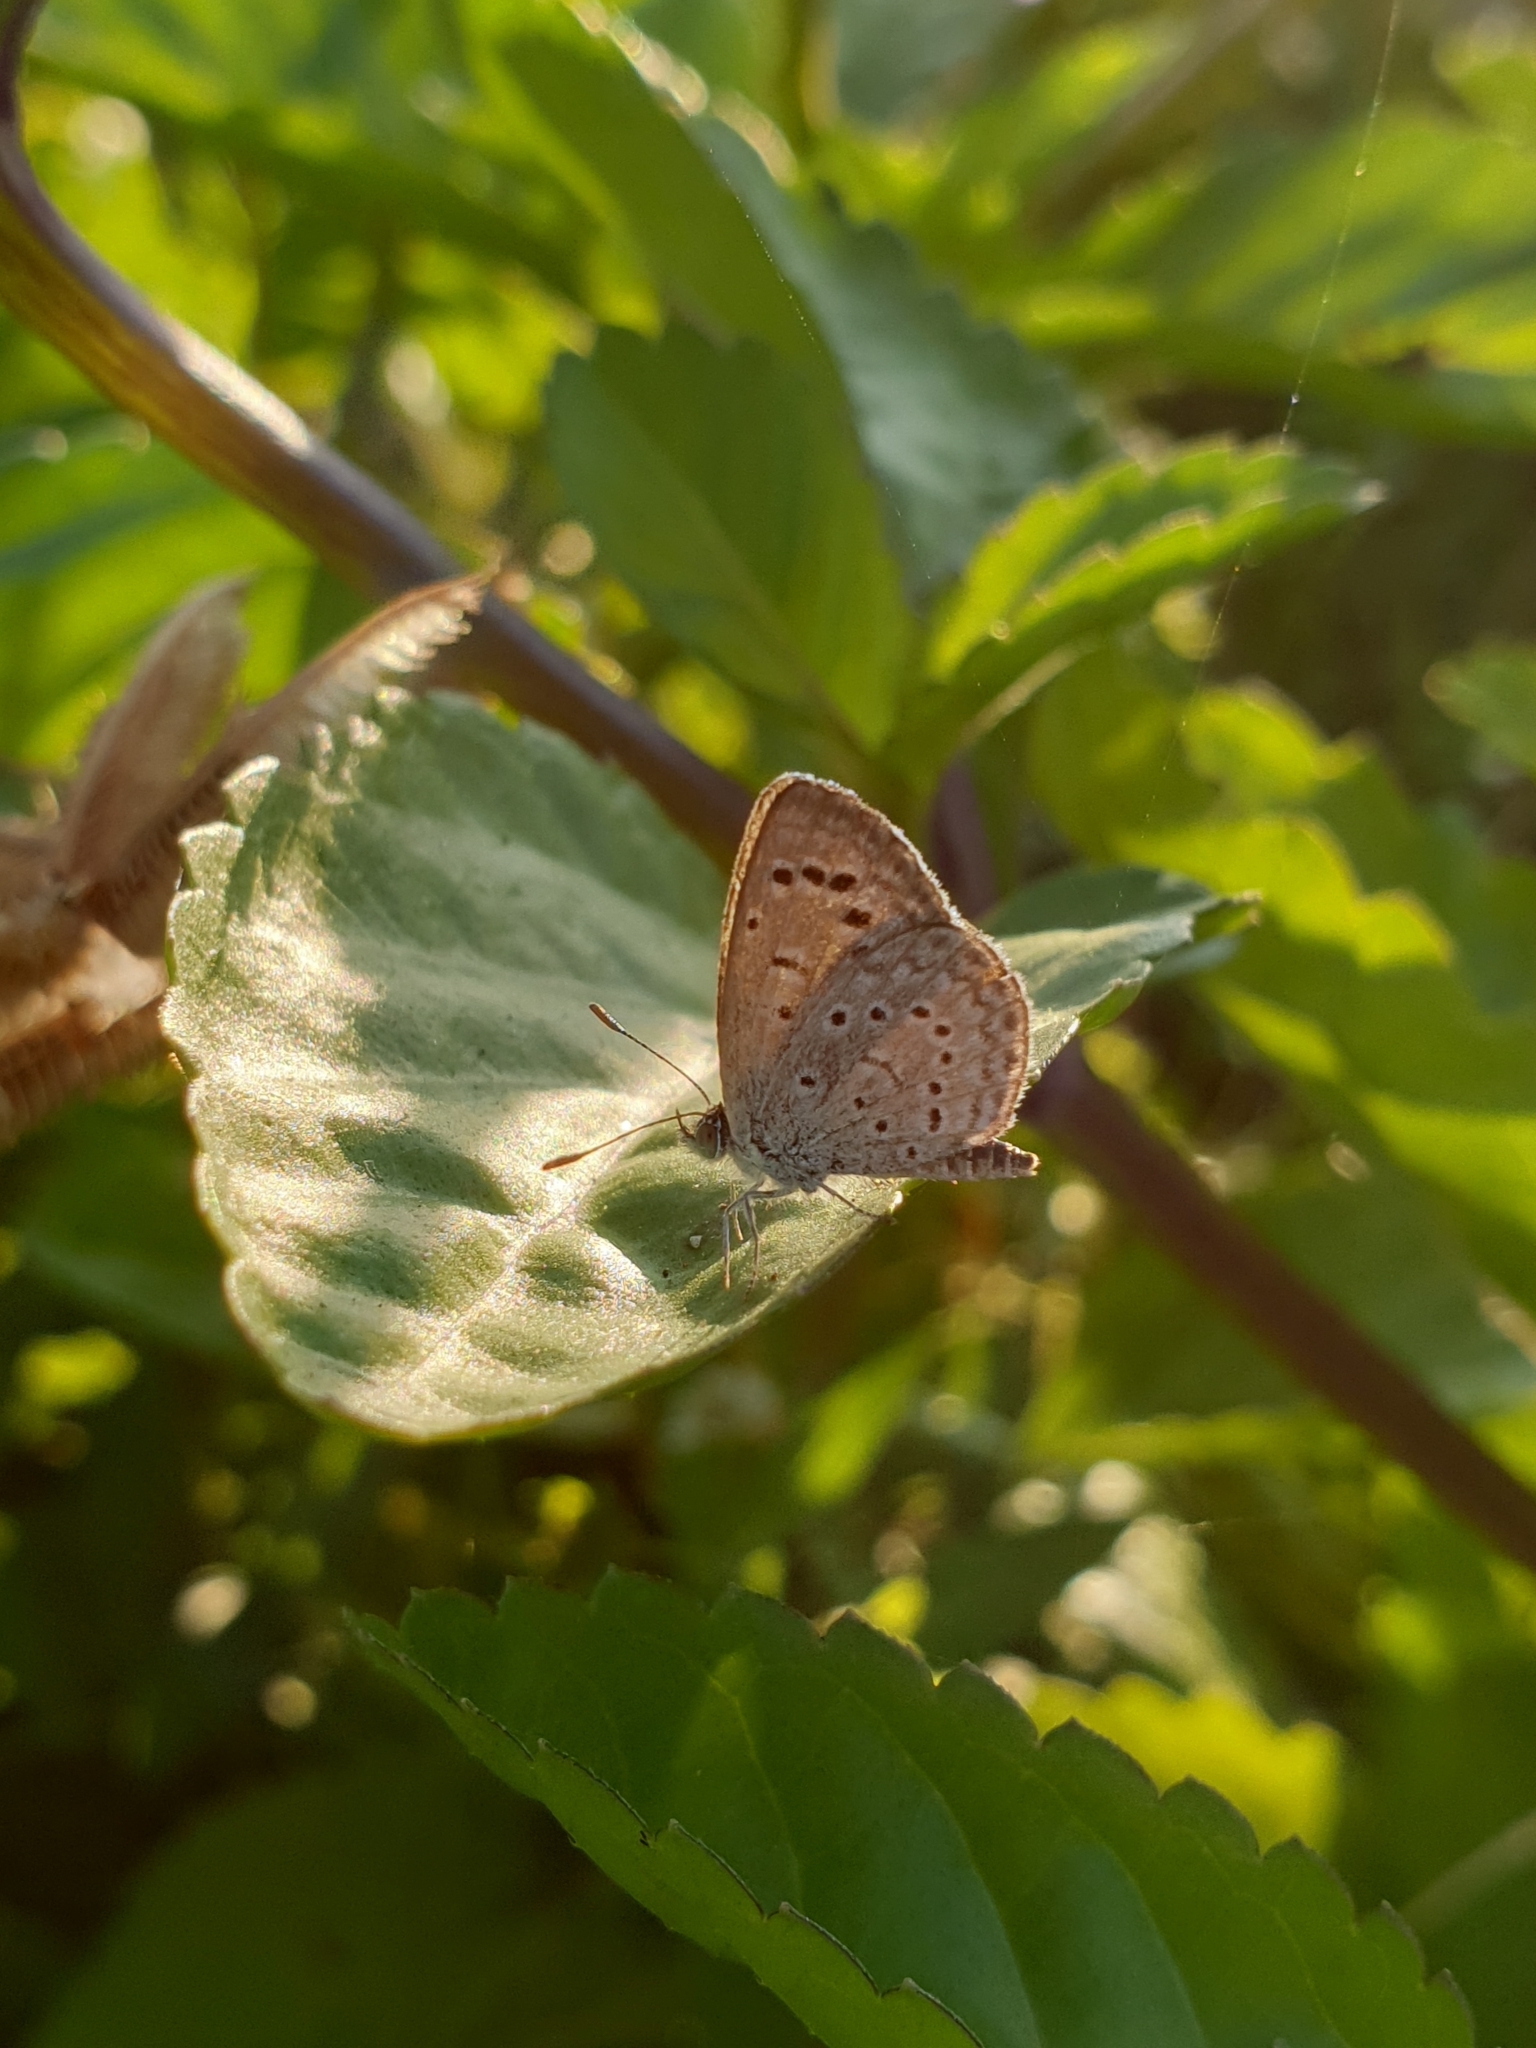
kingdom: Animalia
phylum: Arthropoda
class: Insecta
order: Lepidoptera
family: Lycaenidae
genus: Zizeeria
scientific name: Zizeeria karsandra
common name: Dark grass blue
